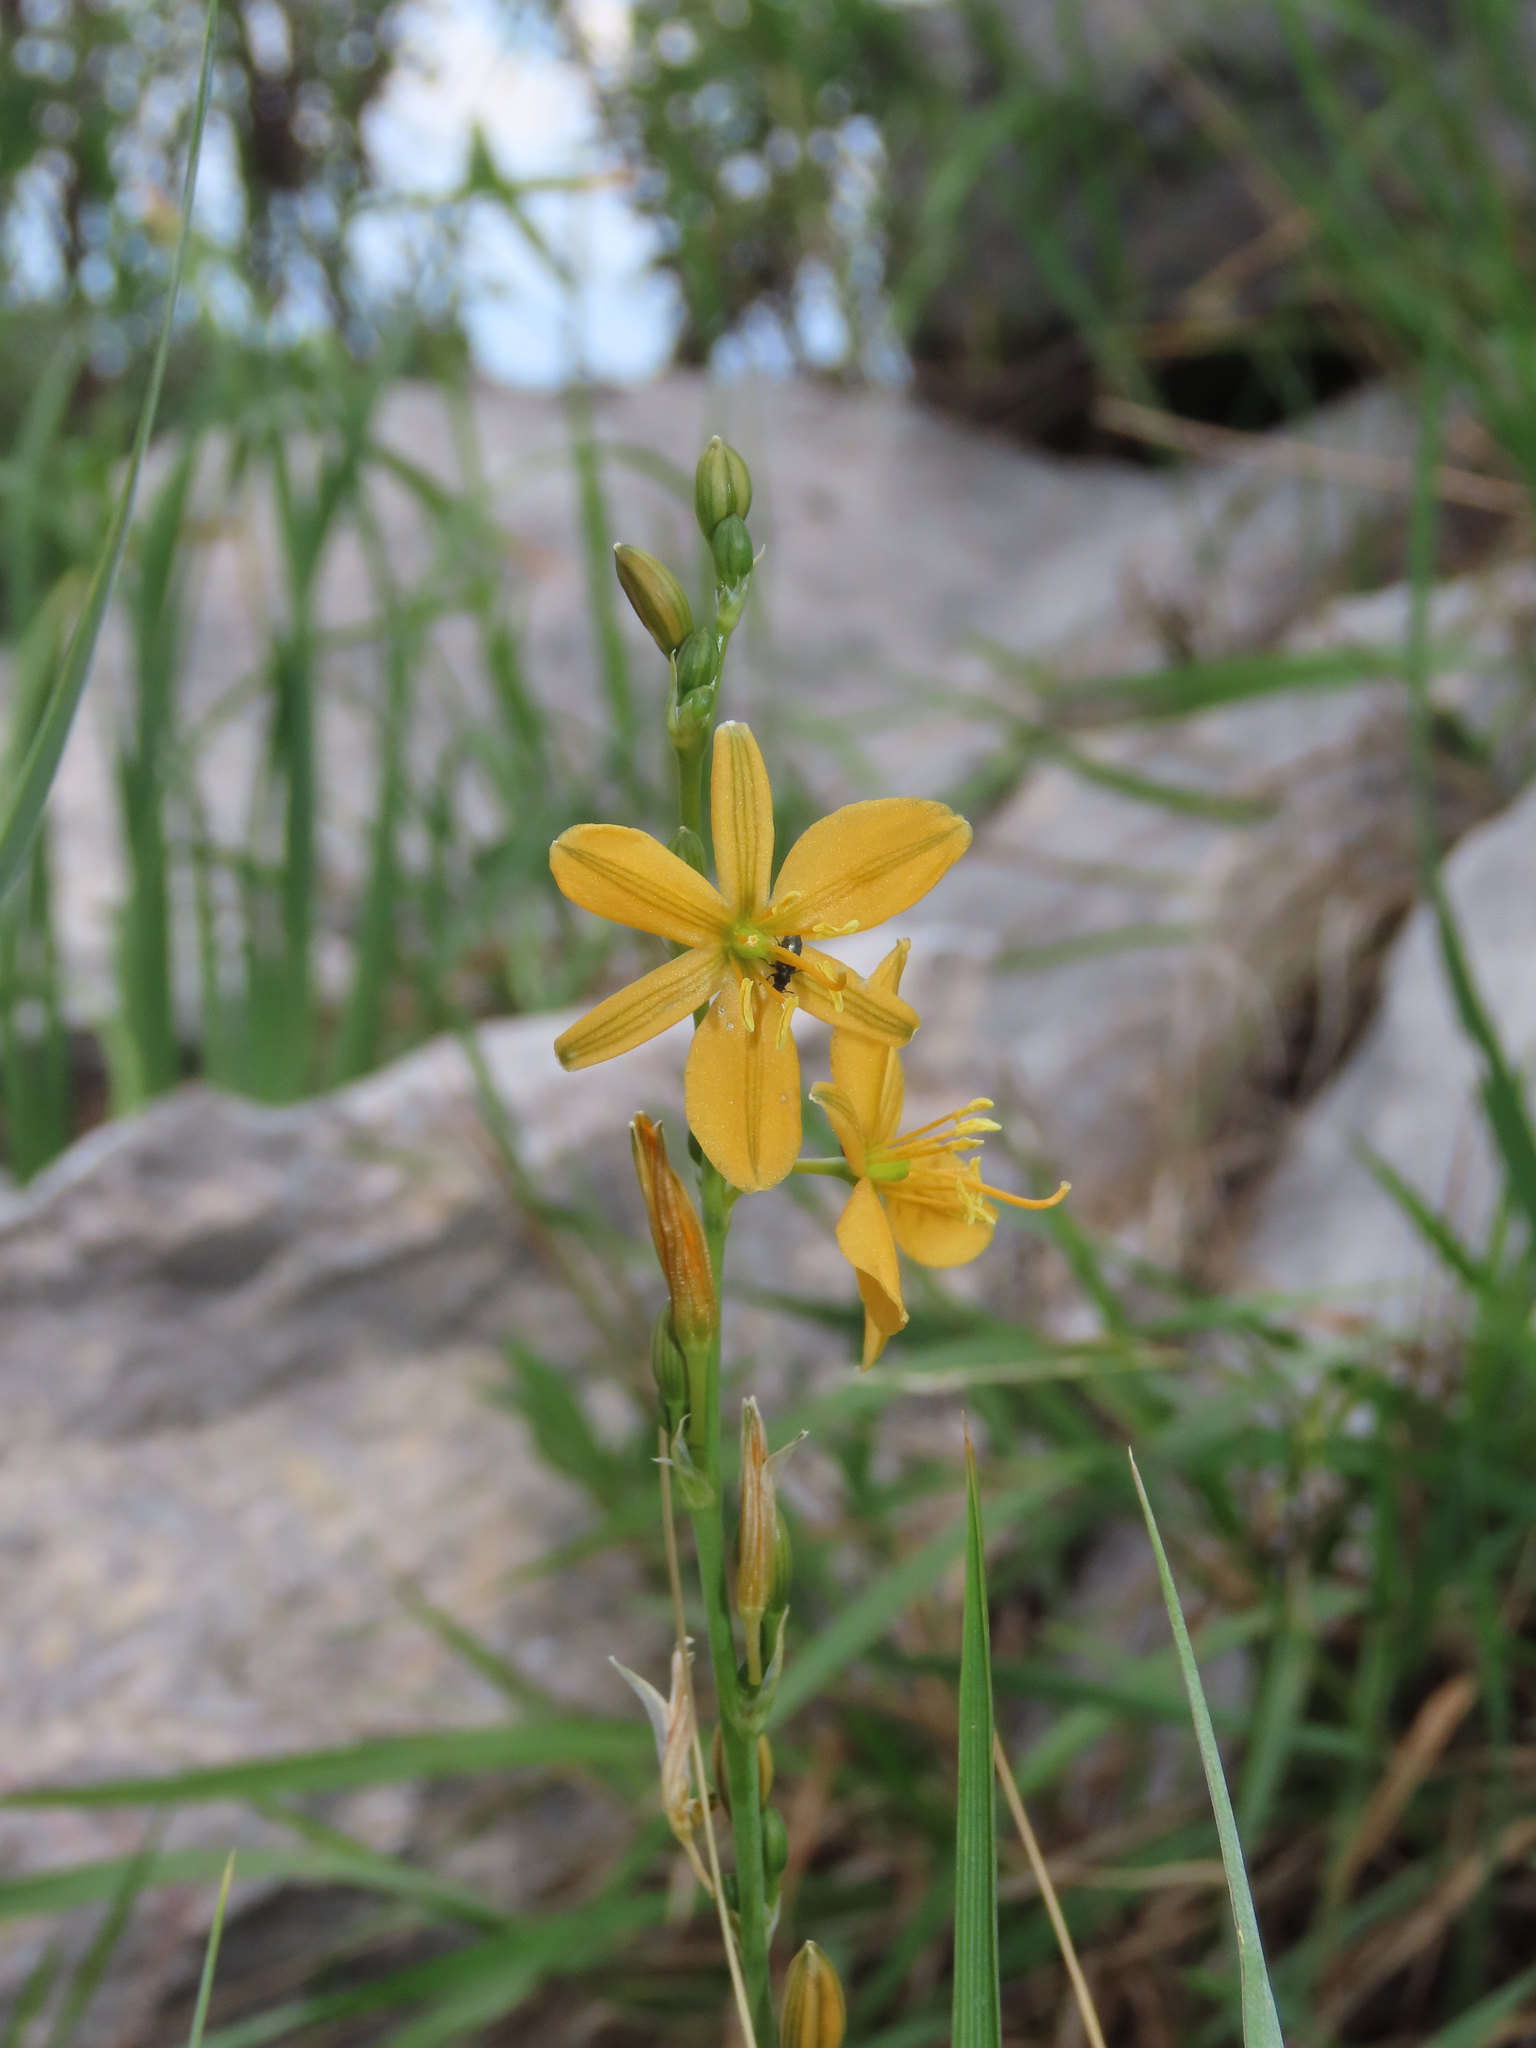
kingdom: Plantae
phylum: Tracheophyta
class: Liliopsida
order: Asparagales
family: Asparagaceae
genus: Echeandia
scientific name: Echeandia flavescens
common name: Amberlily
